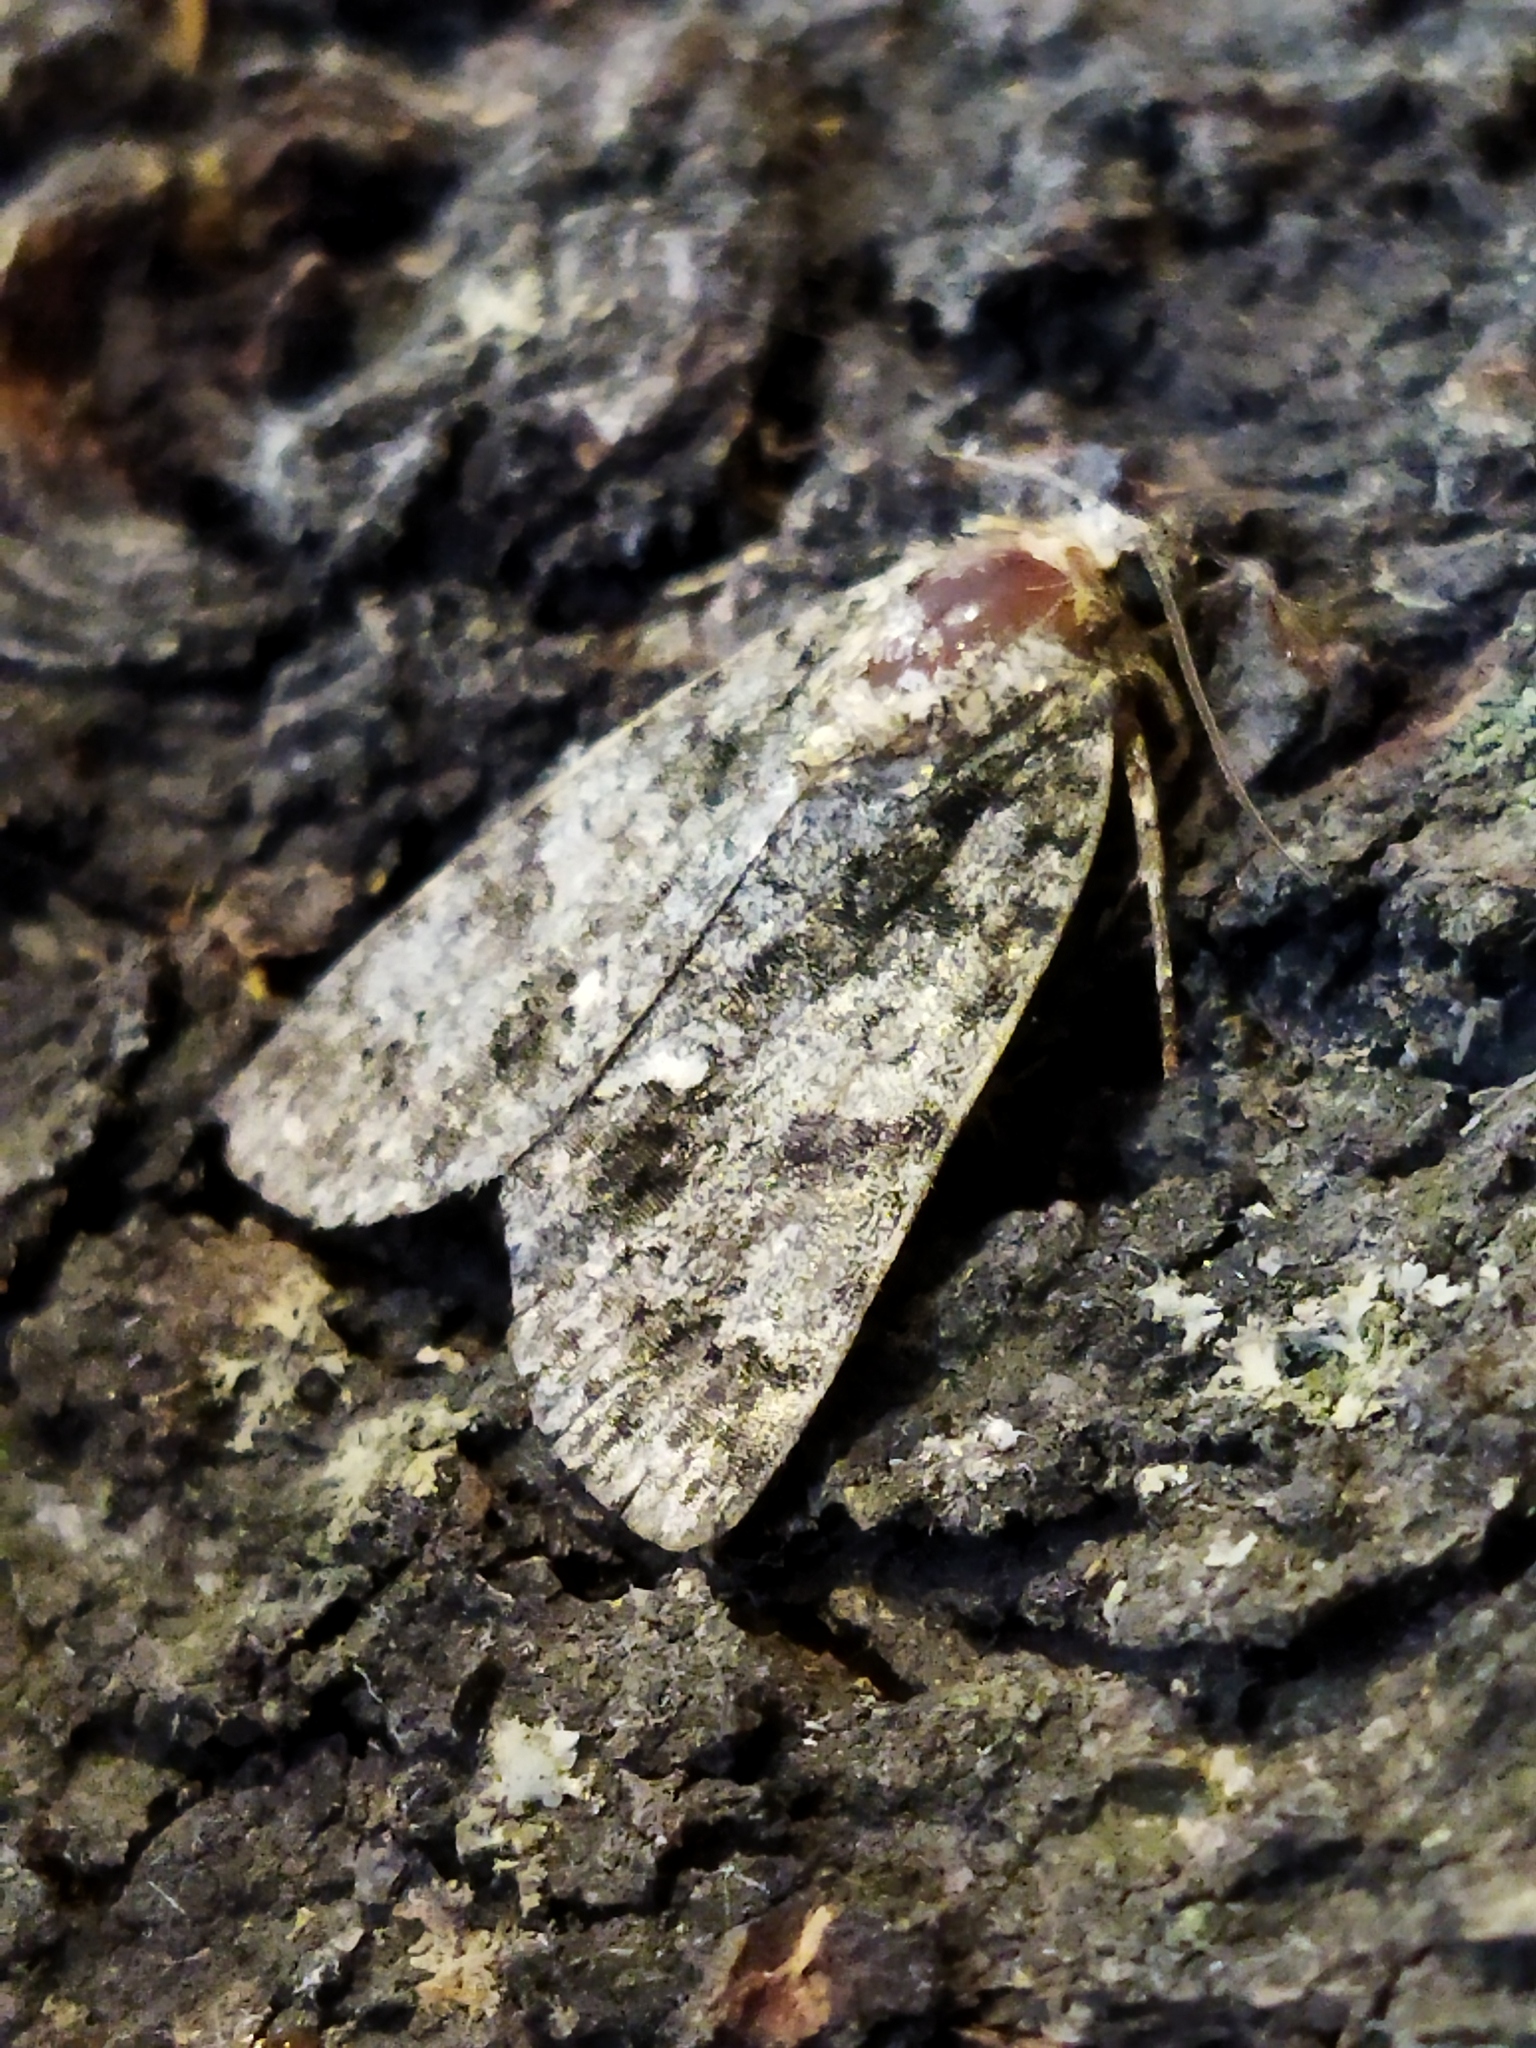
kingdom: Animalia
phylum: Arthropoda
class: Insecta
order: Lepidoptera
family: Noctuidae
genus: Acronicta
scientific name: Acronicta rumicis
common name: Knot grass
